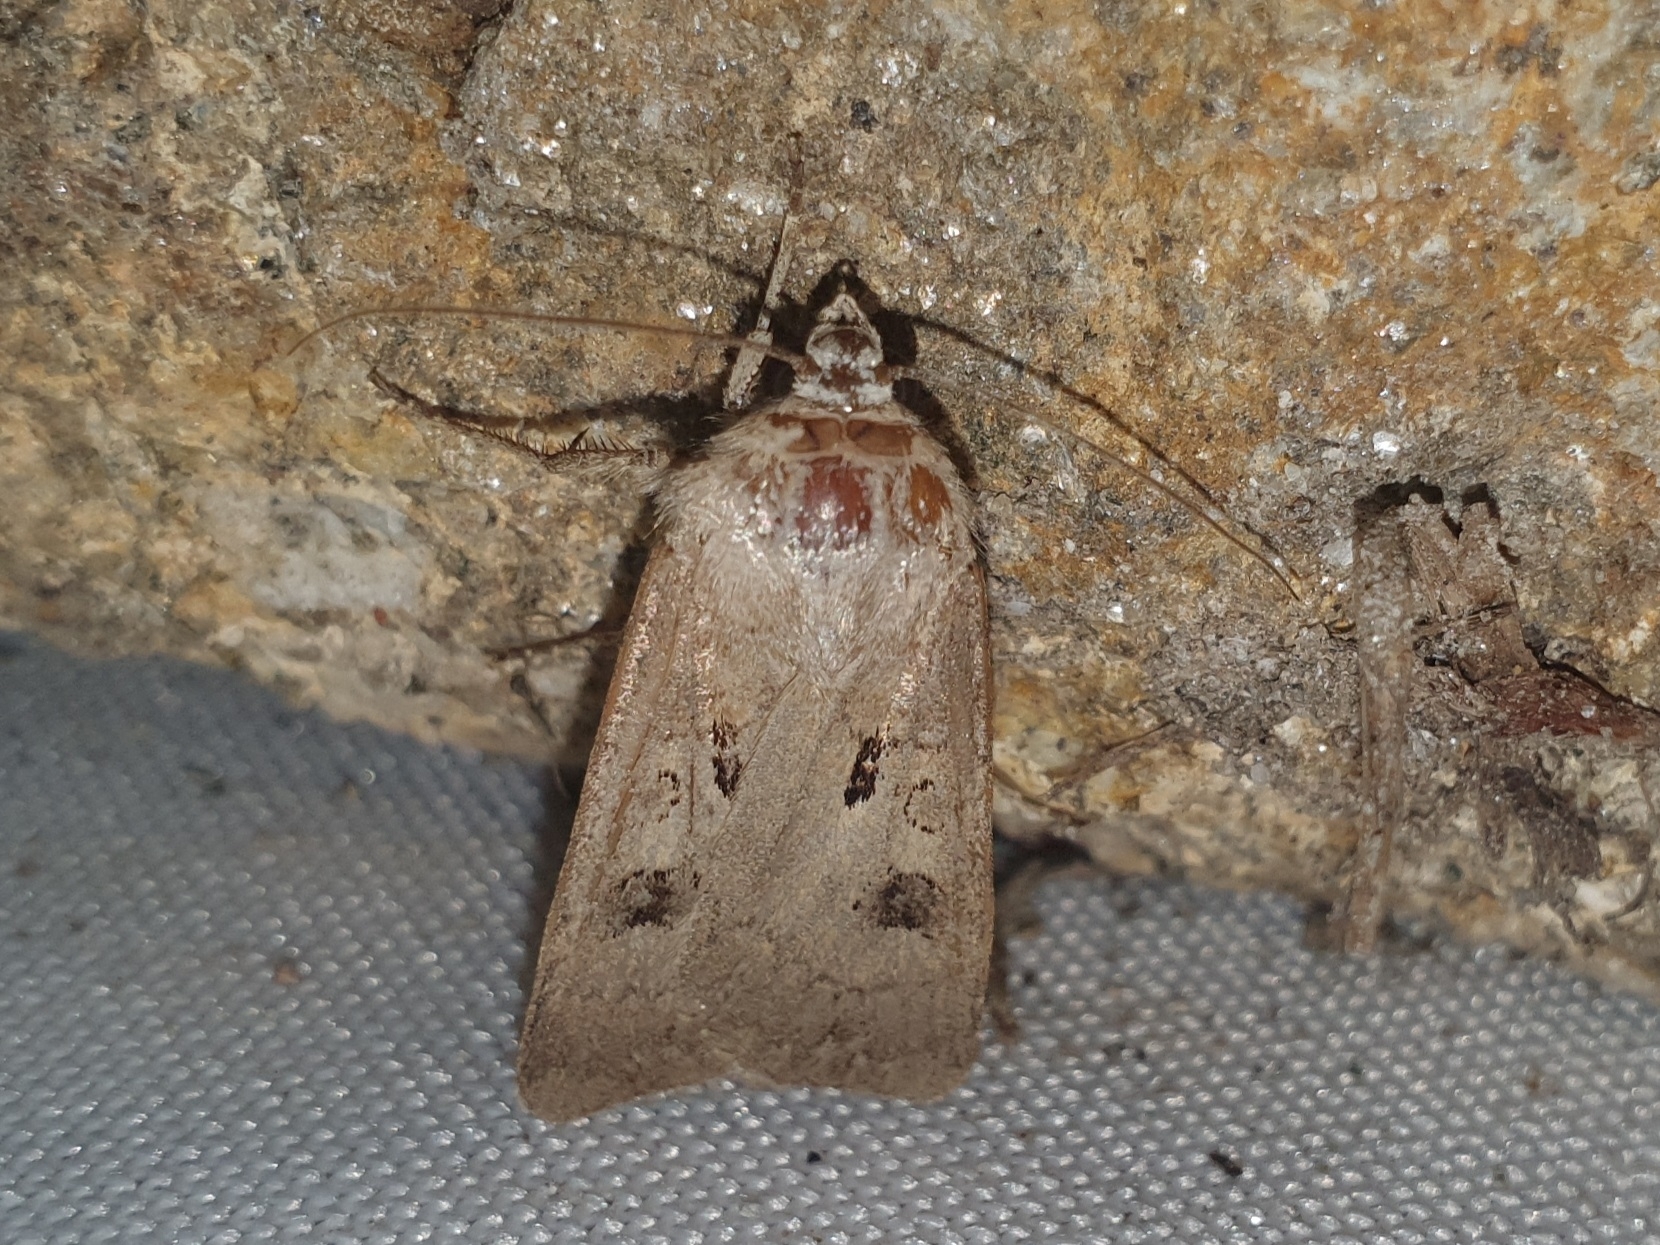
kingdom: Animalia
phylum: Arthropoda
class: Insecta
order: Lepidoptera
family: Noctuidae
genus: Agrotis
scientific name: Agrotis exclamationis
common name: Heart and dart
